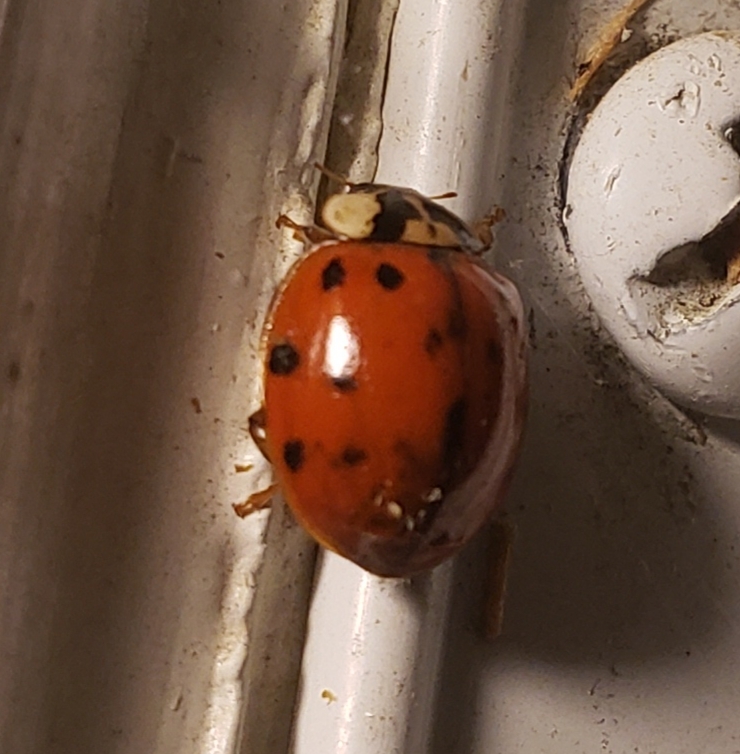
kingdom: Animalia
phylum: Arthropoda
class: Insecta
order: Coleoptera
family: Coccinellidae
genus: Harmonia
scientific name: Harmonia axyridis
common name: Harlequin ladybird
